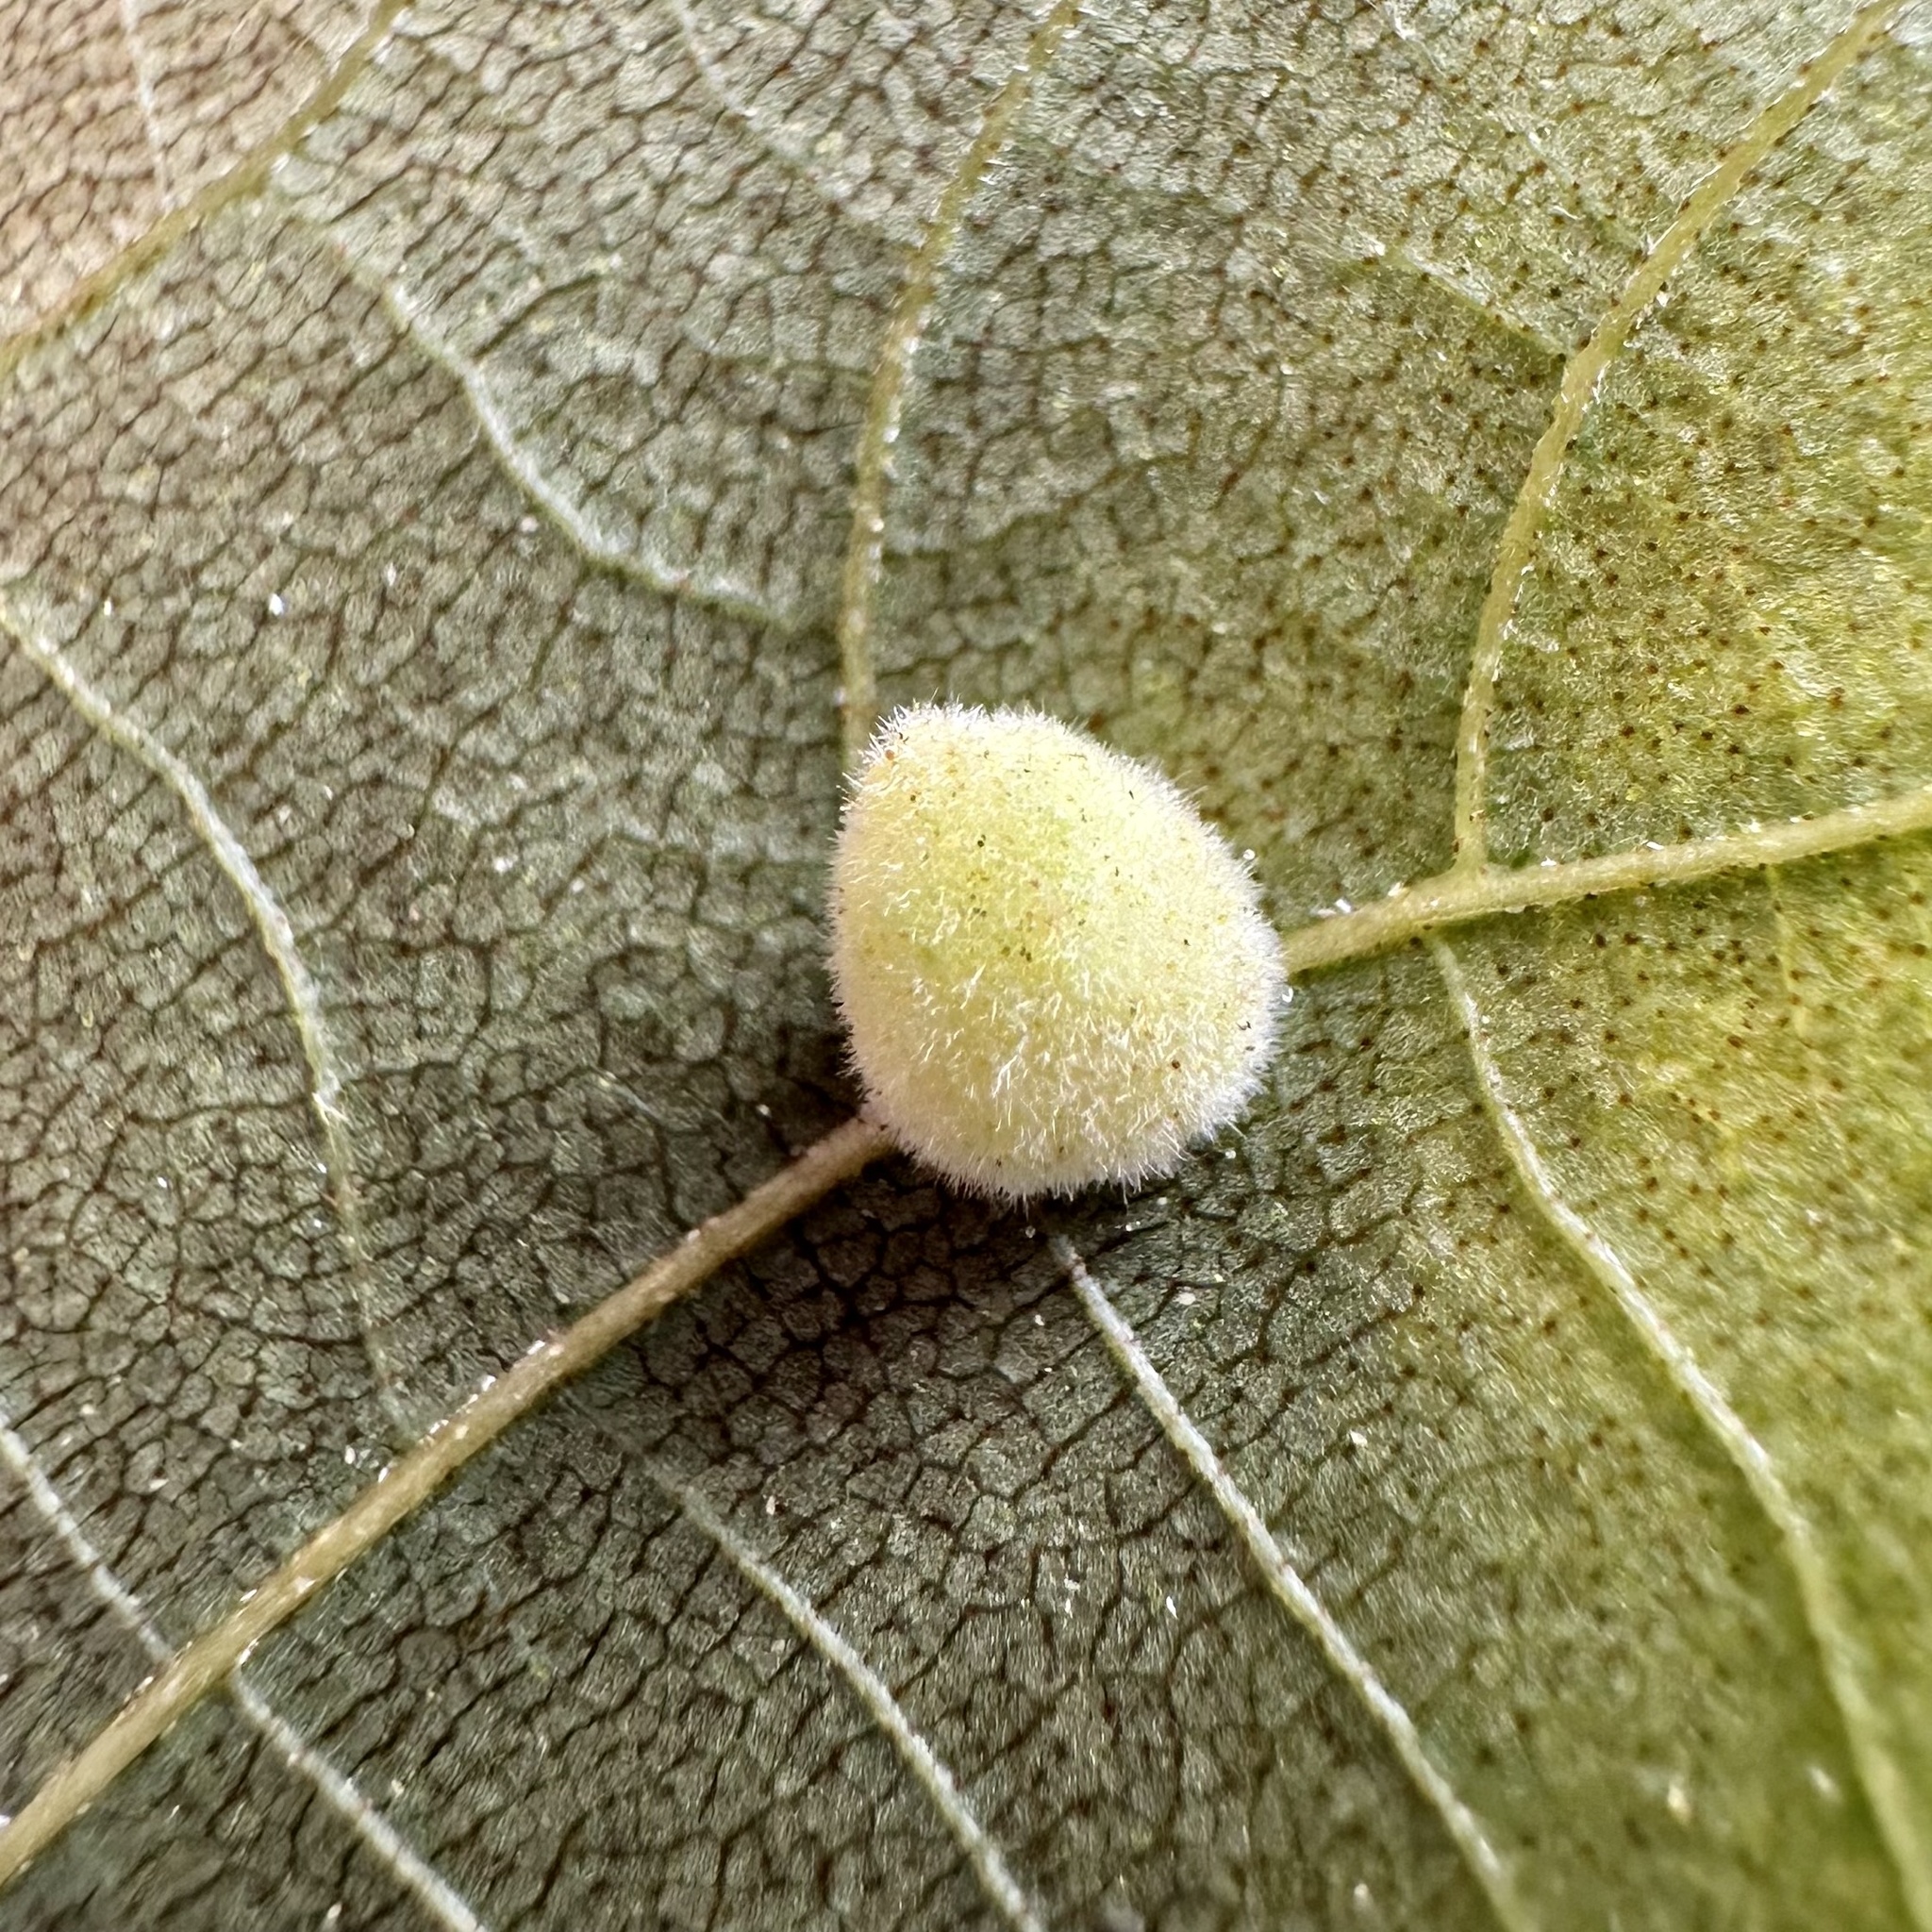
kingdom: Animalia
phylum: Arthropoda
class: Insecta
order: Diptera
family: Cecidomyiidae
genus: Caryomyia
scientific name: Caryomyia persicoides
